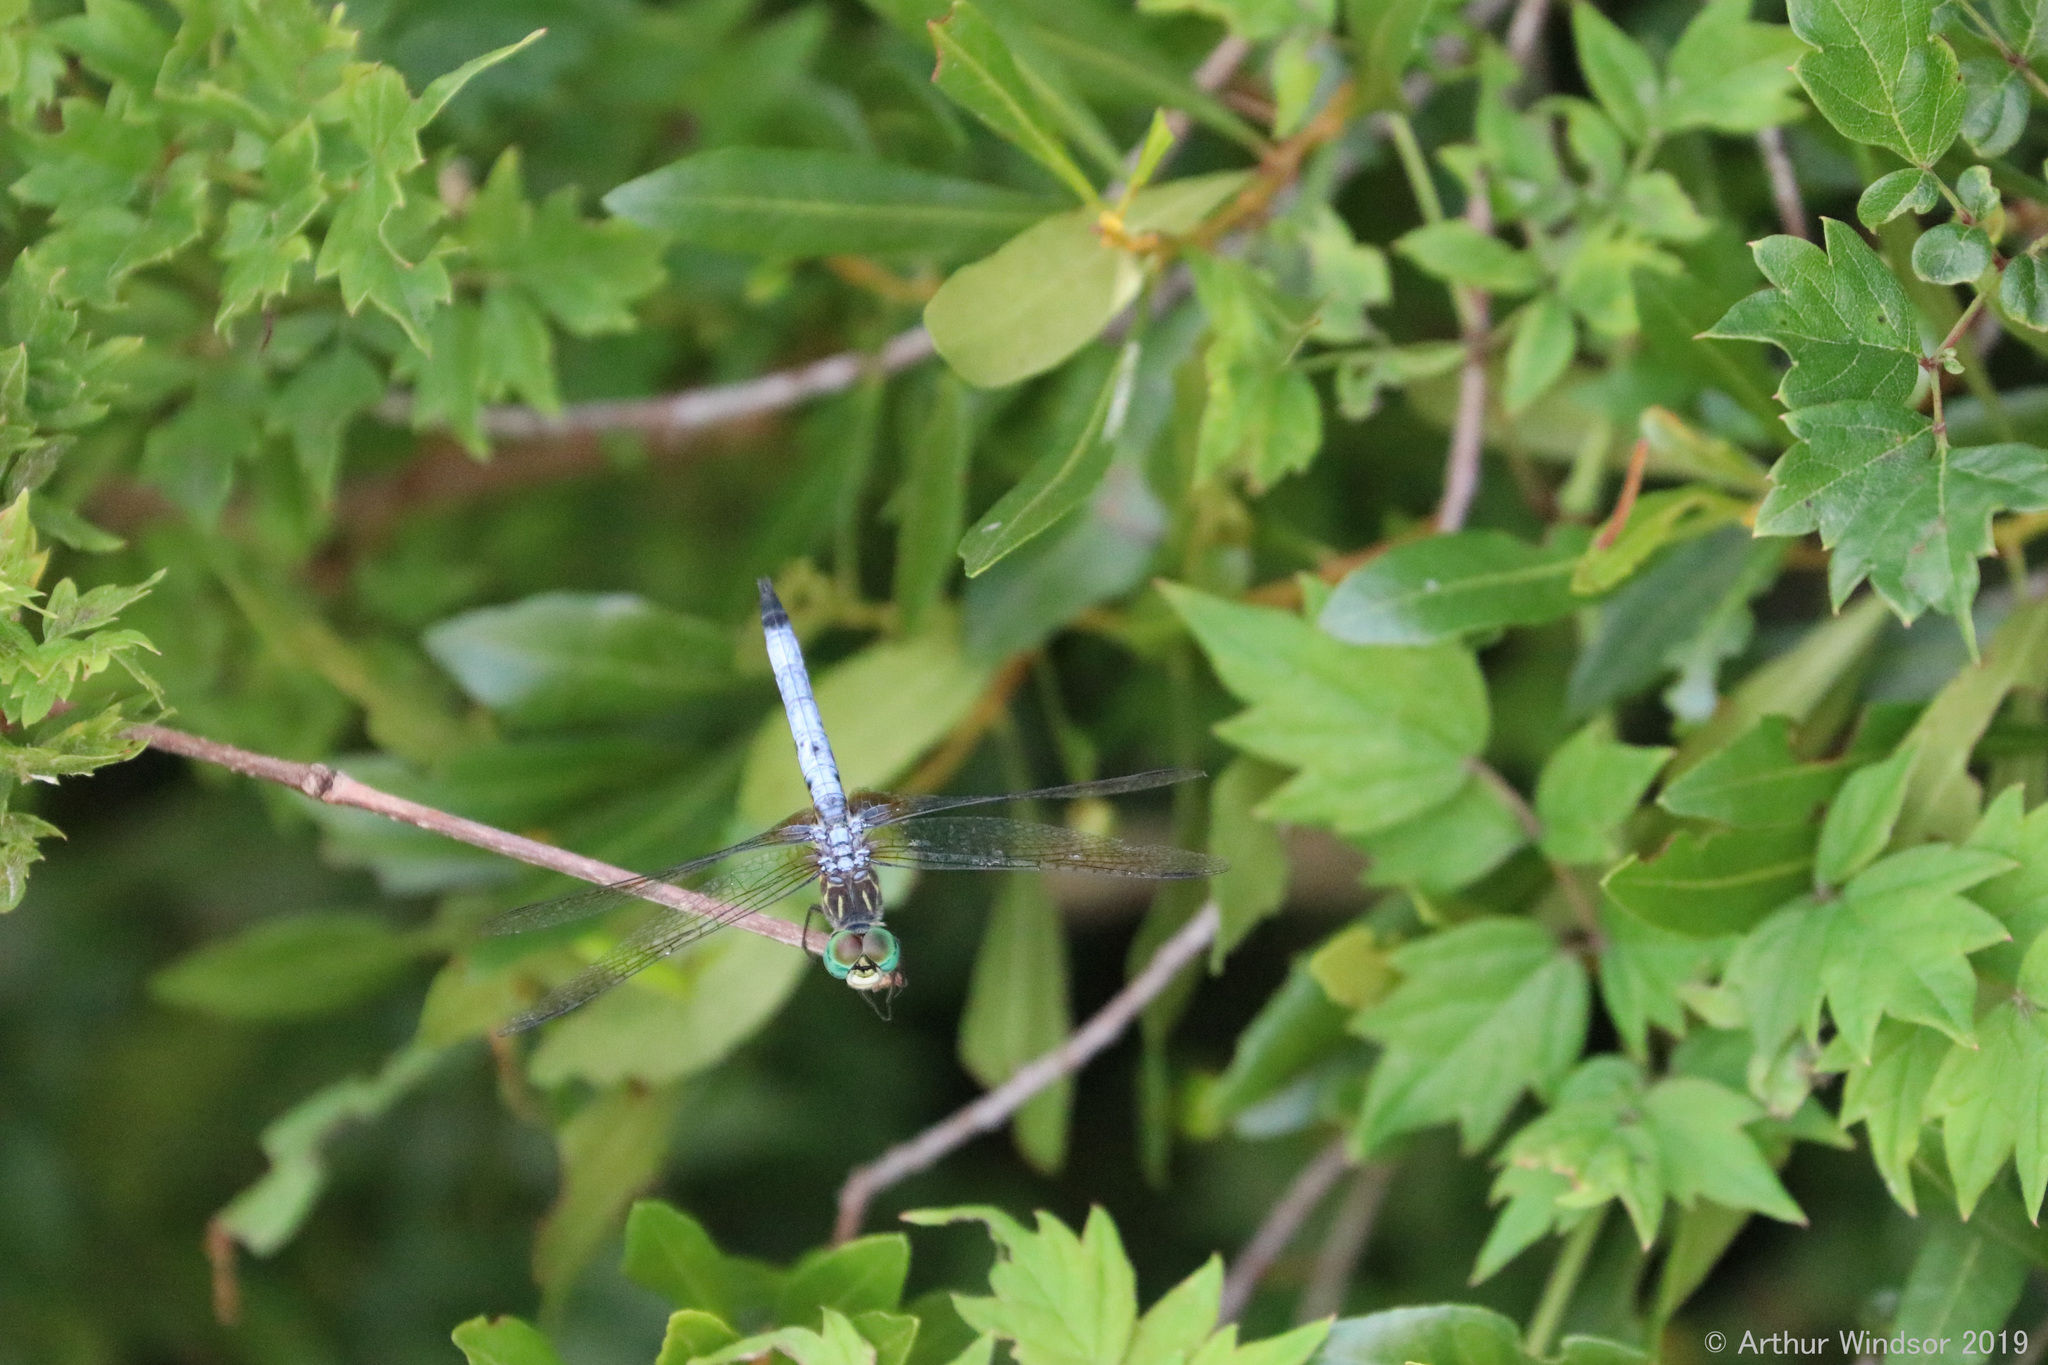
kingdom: Animalia
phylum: Arthropoda
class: Insecta
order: Odonata
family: Libellulidae
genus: Pachydiplax
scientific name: Pachydiplax longipennis
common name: Blue dasher
